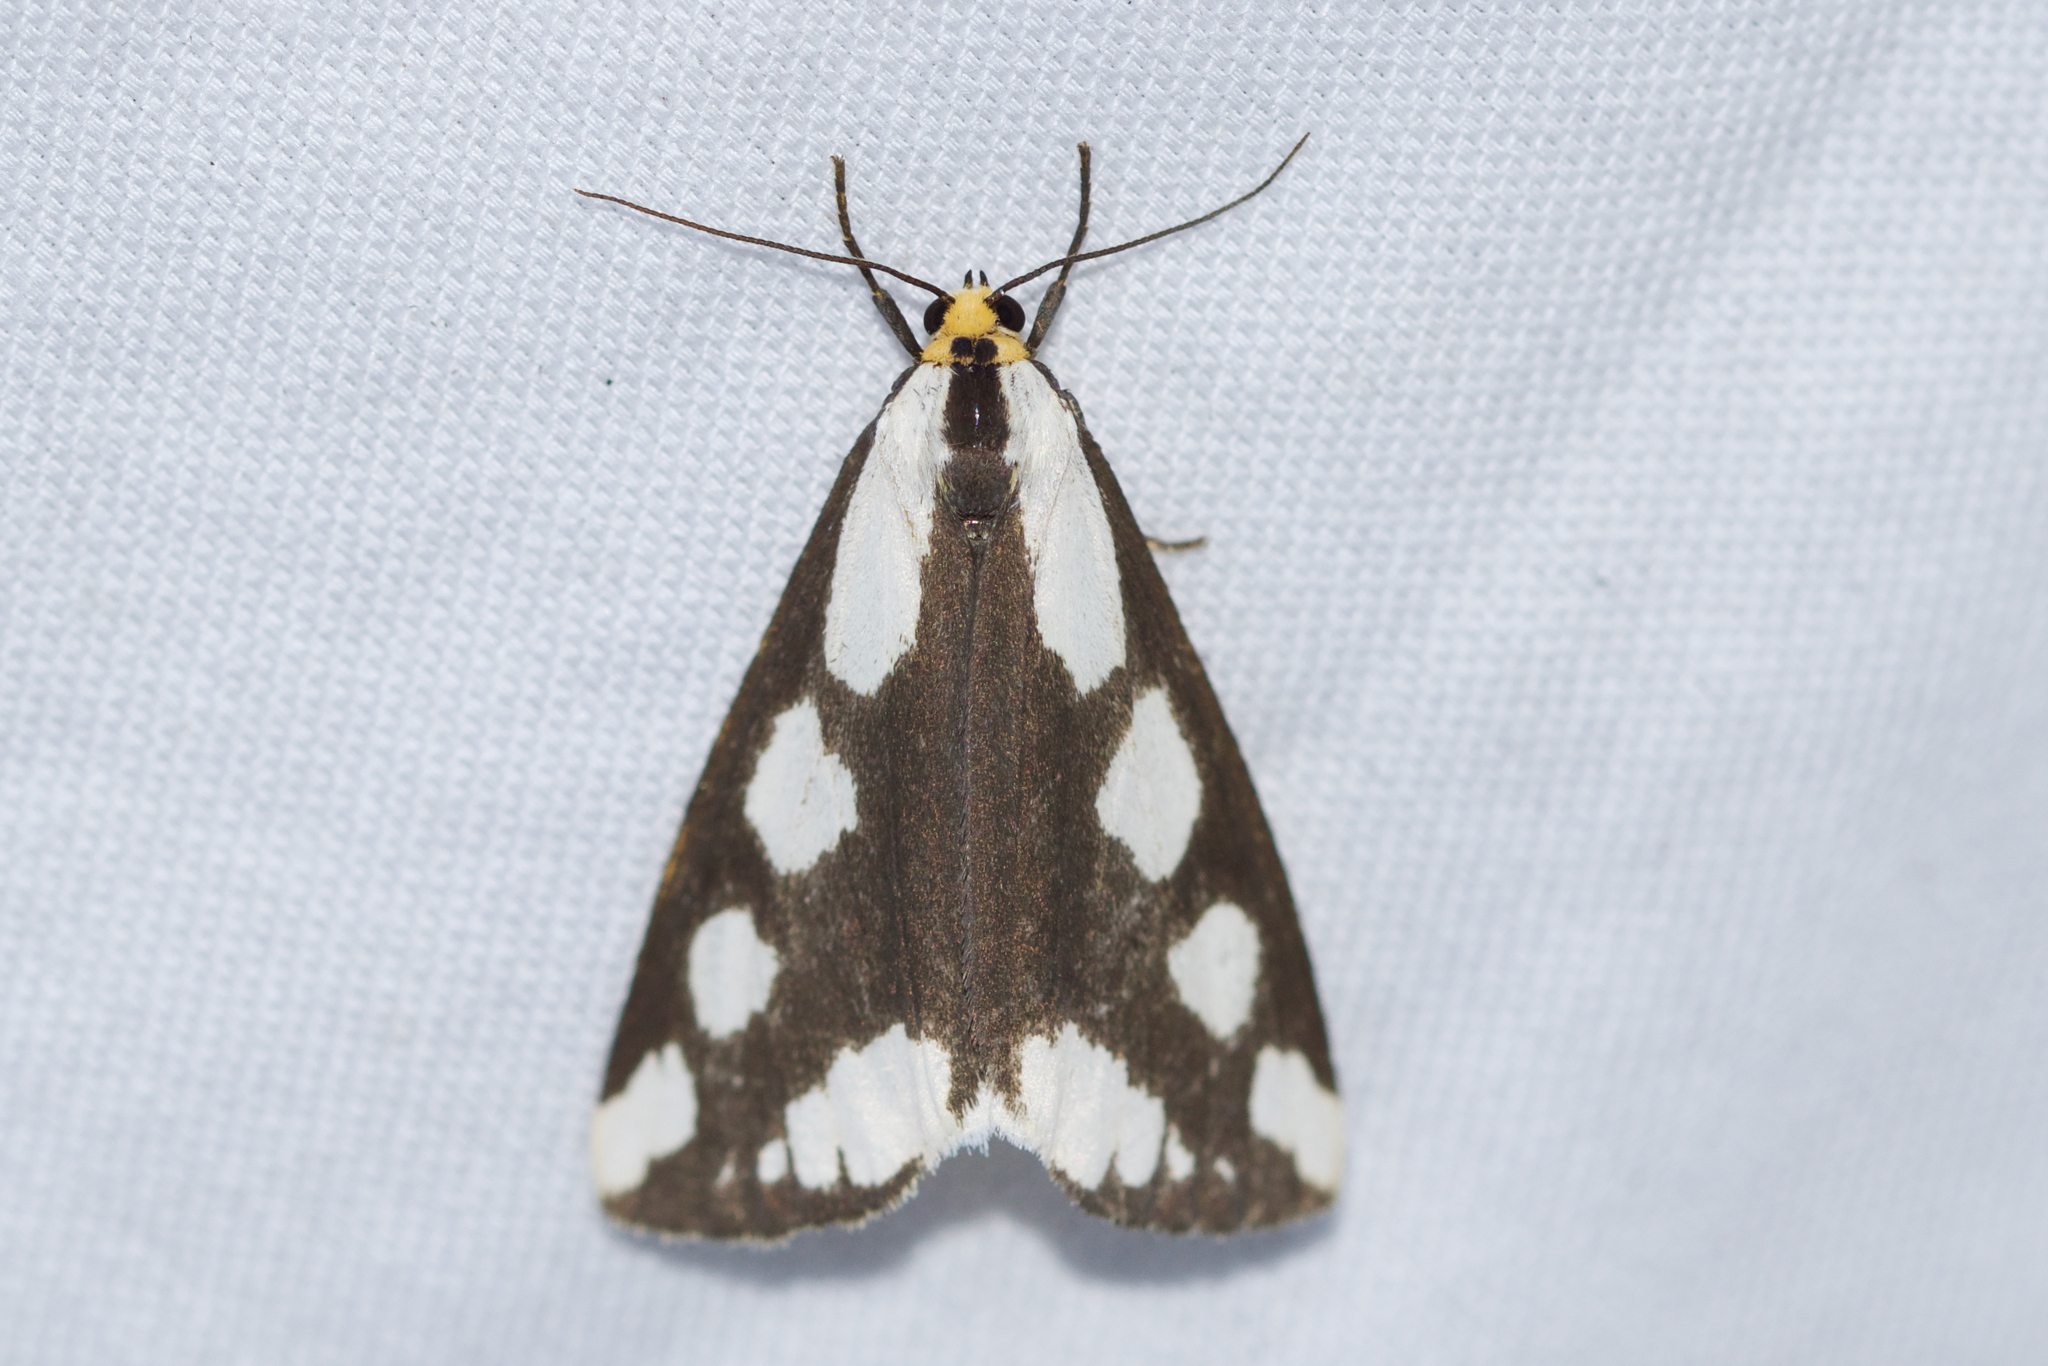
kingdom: Animalia
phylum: Arthropoda
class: Insecta
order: Lepidoptera
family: Erebidae
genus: Haploa
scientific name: Haploa lecontei
